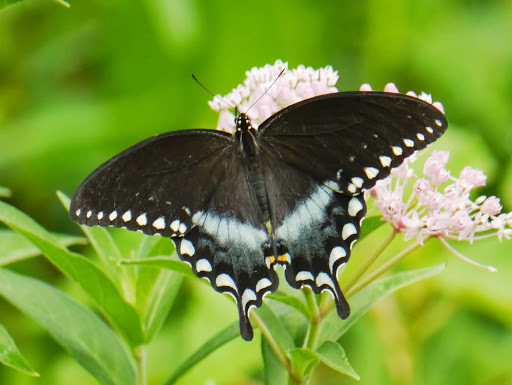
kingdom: Animalia
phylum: Arthropoda
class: Insecta
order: Lepidoptera
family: Papilionidae
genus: Papilio
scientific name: Papilio troilus
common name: Spicebush swallowtail
